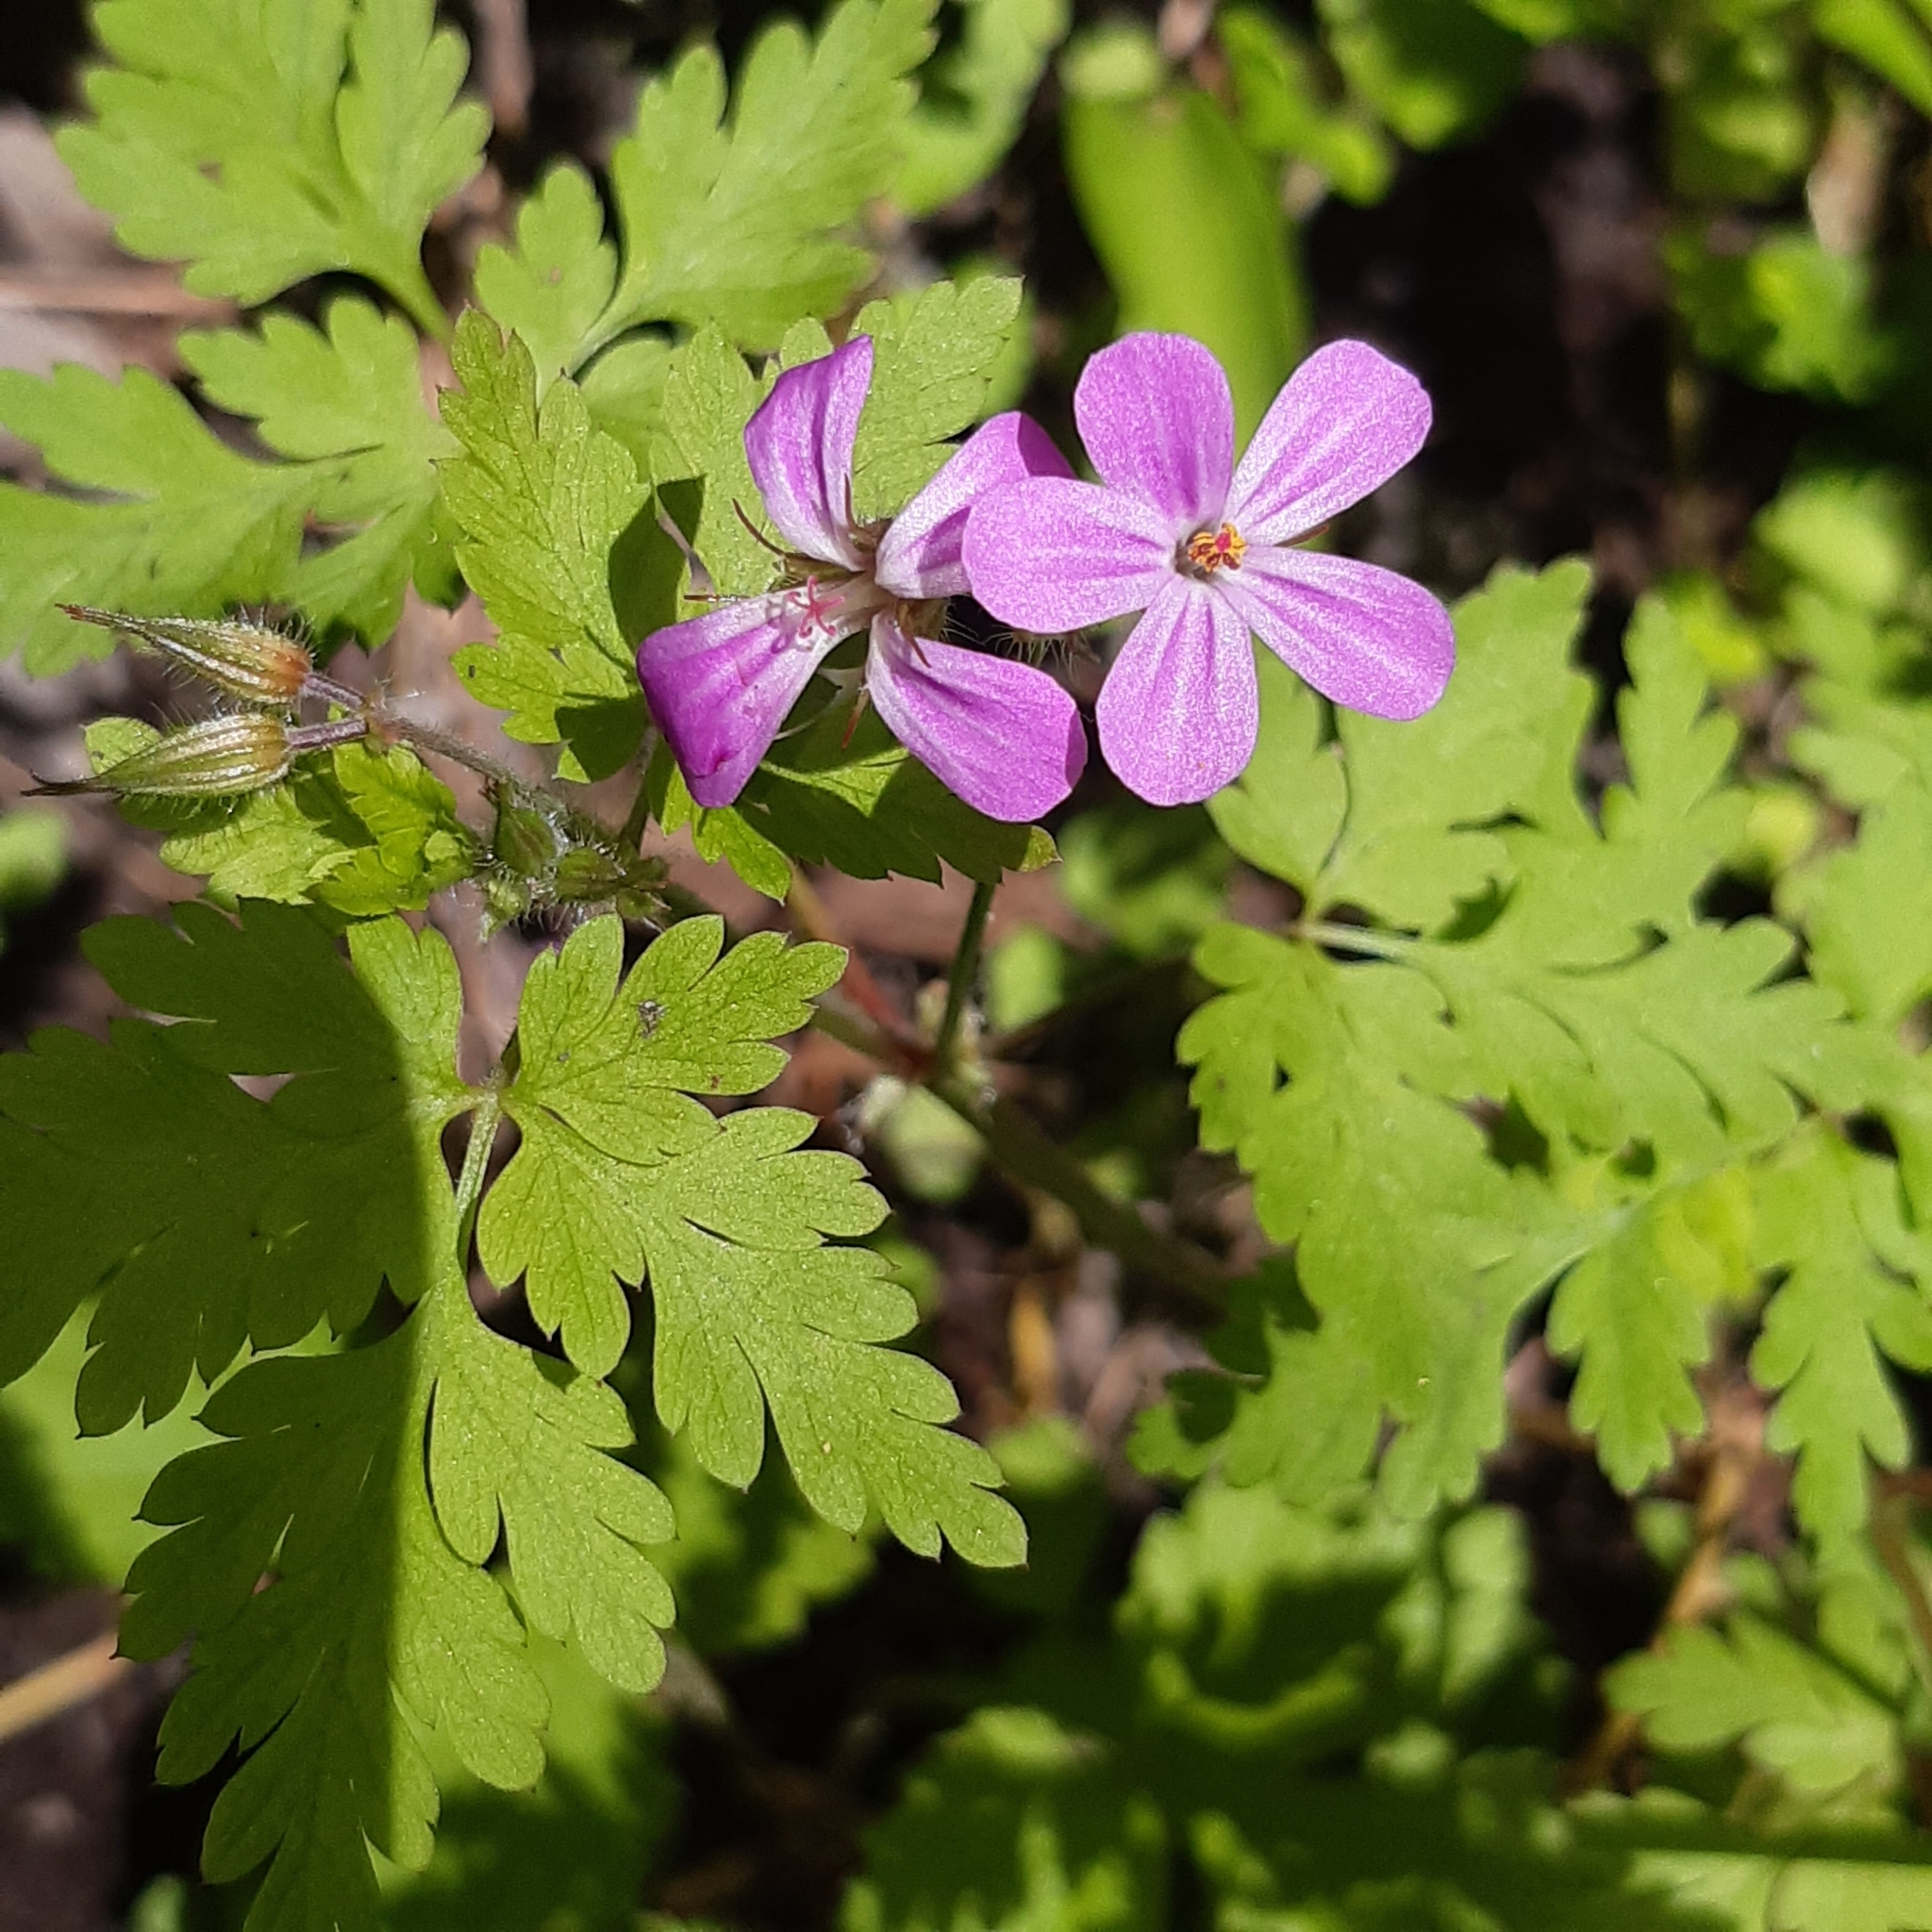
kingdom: Plantae
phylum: Tracheophyta
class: Magnoliopsida
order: Geraniales
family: Geraniaceae
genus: Geranium
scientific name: Geranium robertianum
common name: Herb-robert
